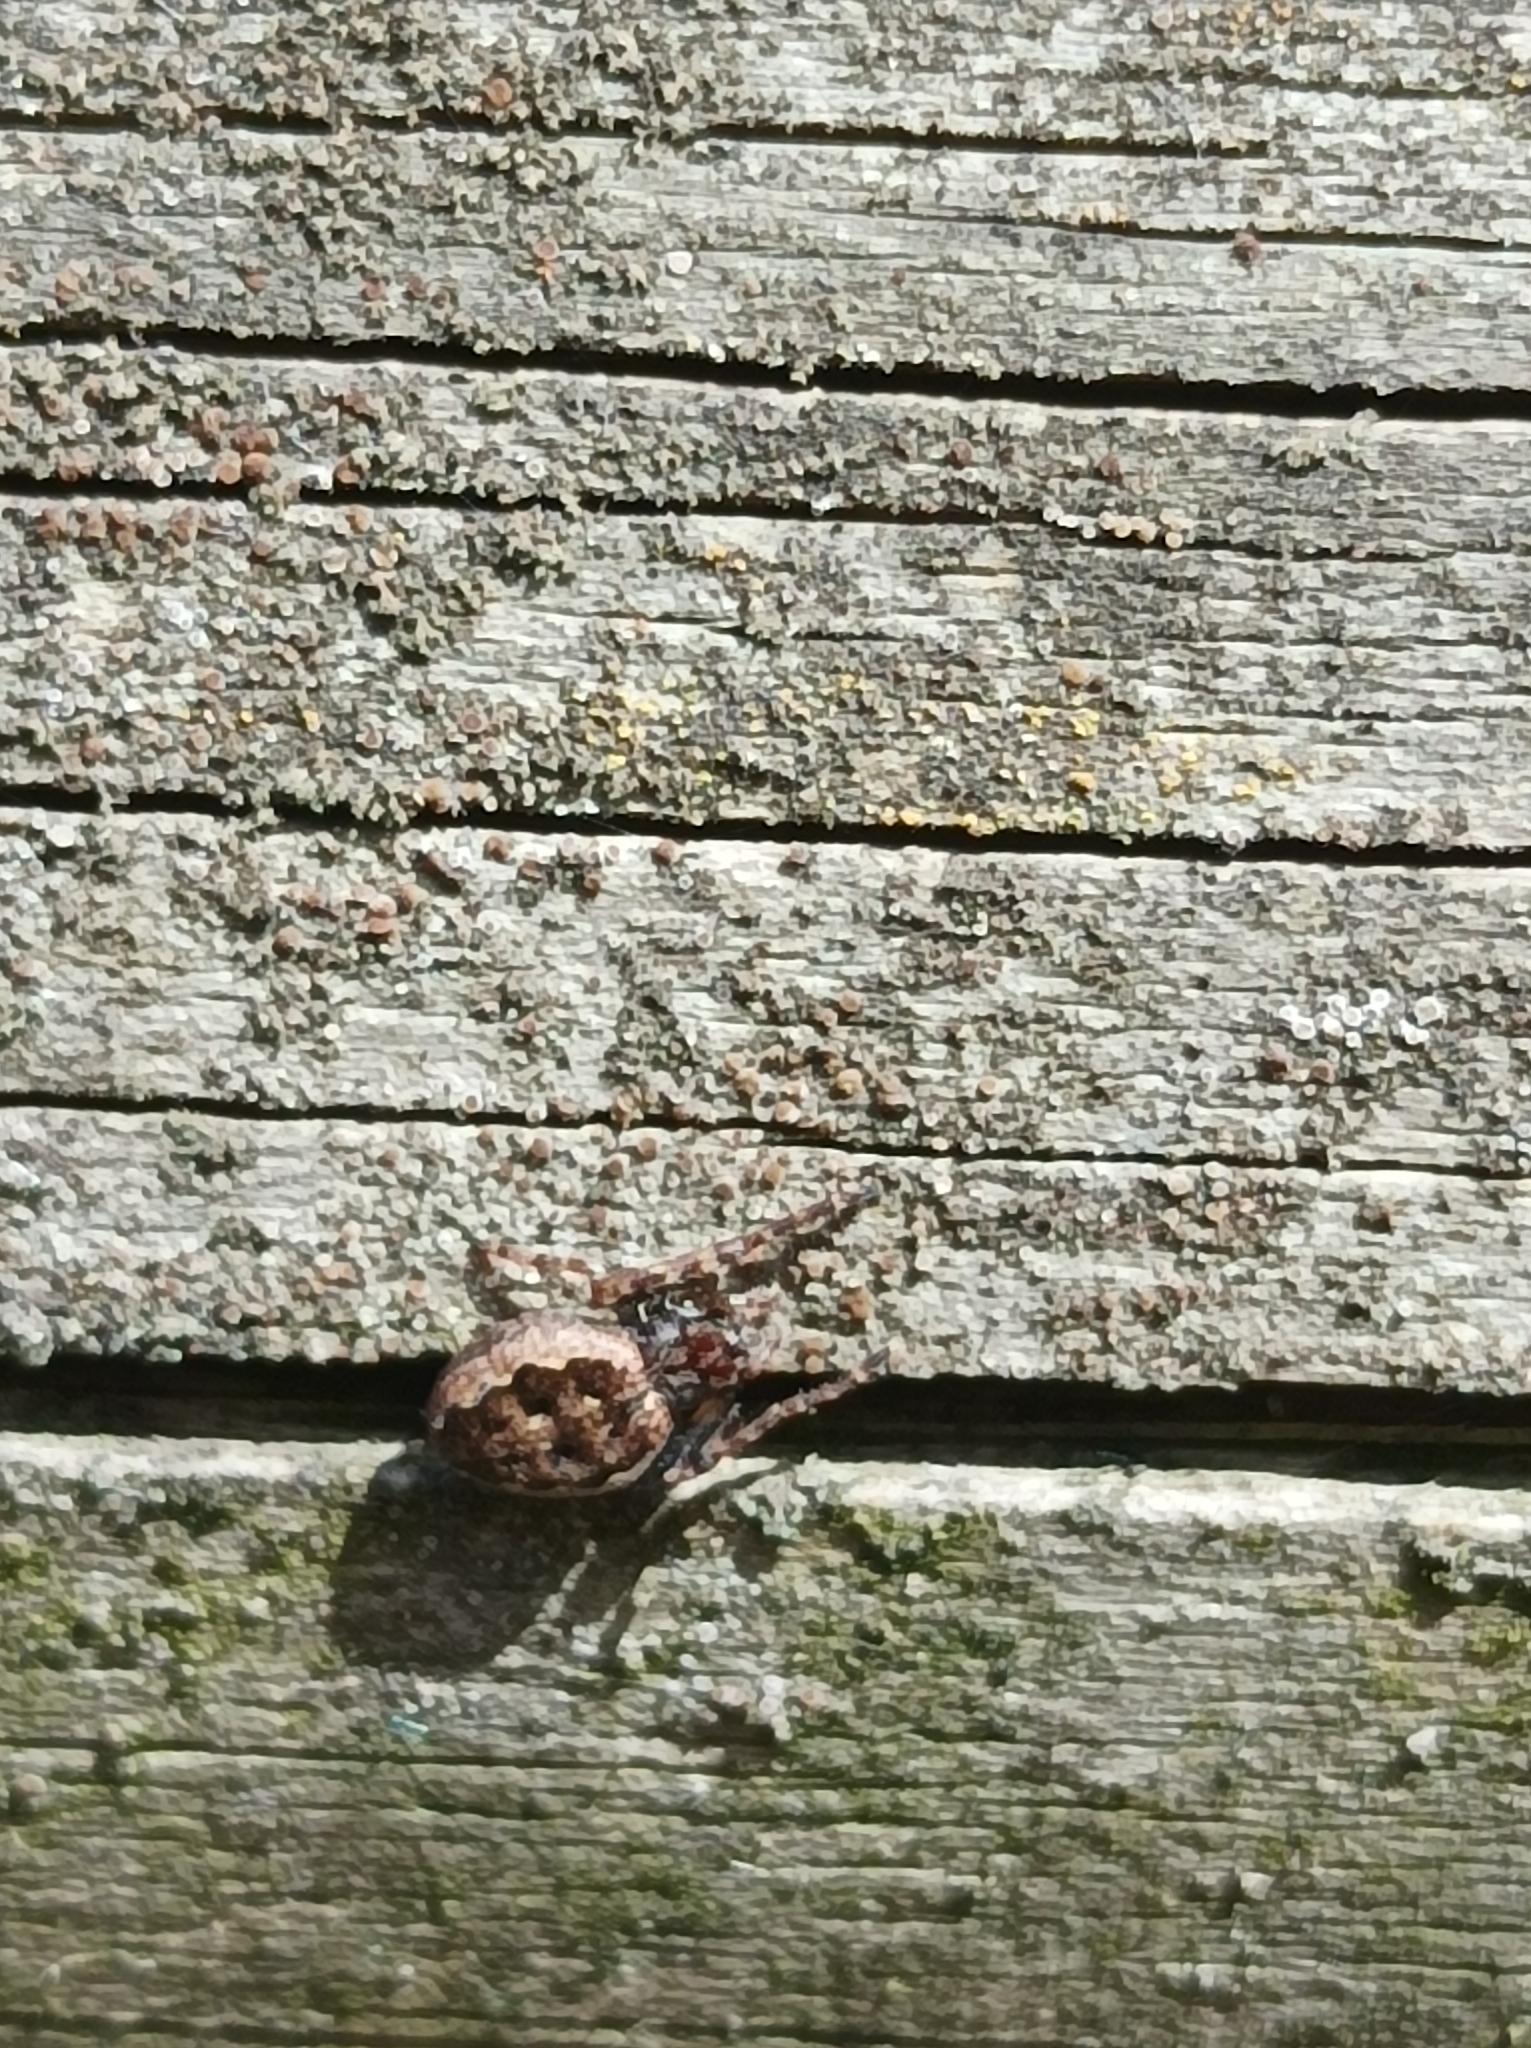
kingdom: Animalia
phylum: Arthropoda
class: Arachnida
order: Araneae
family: Araneidae
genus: Nuctenea
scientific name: Nuctenea umbratica
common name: Toad spider
